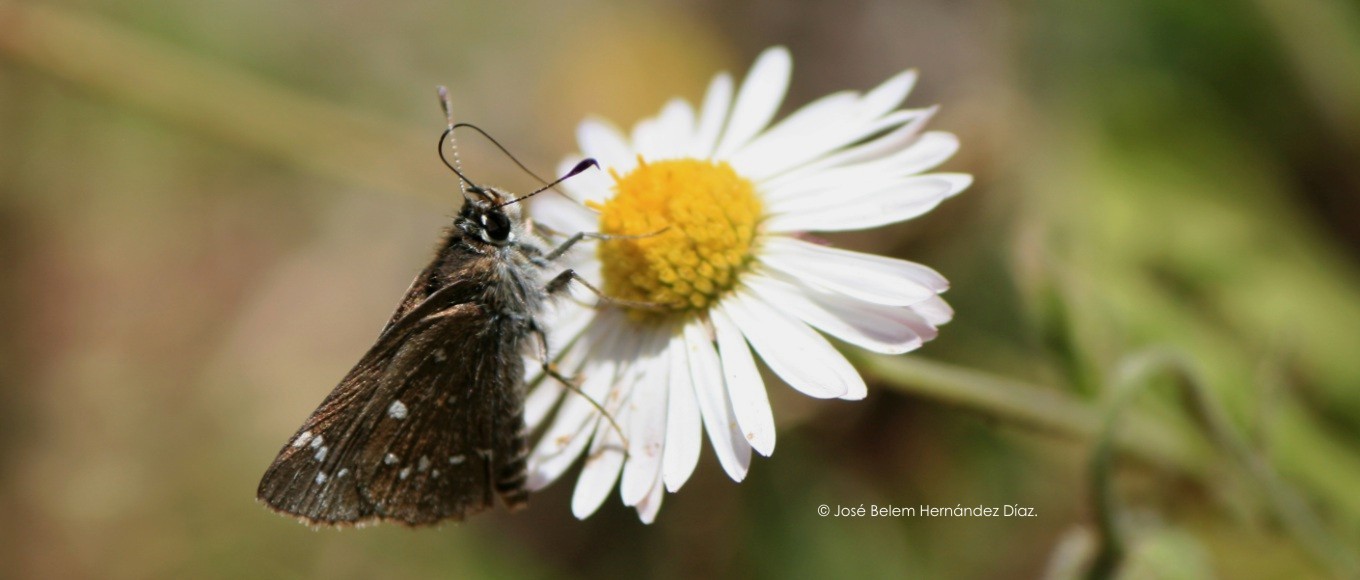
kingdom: Animalia
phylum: Arthropoda
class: Insecta
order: Lepidoptera
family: Hesperiidae
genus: Mastor
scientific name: Mastor tolteca
